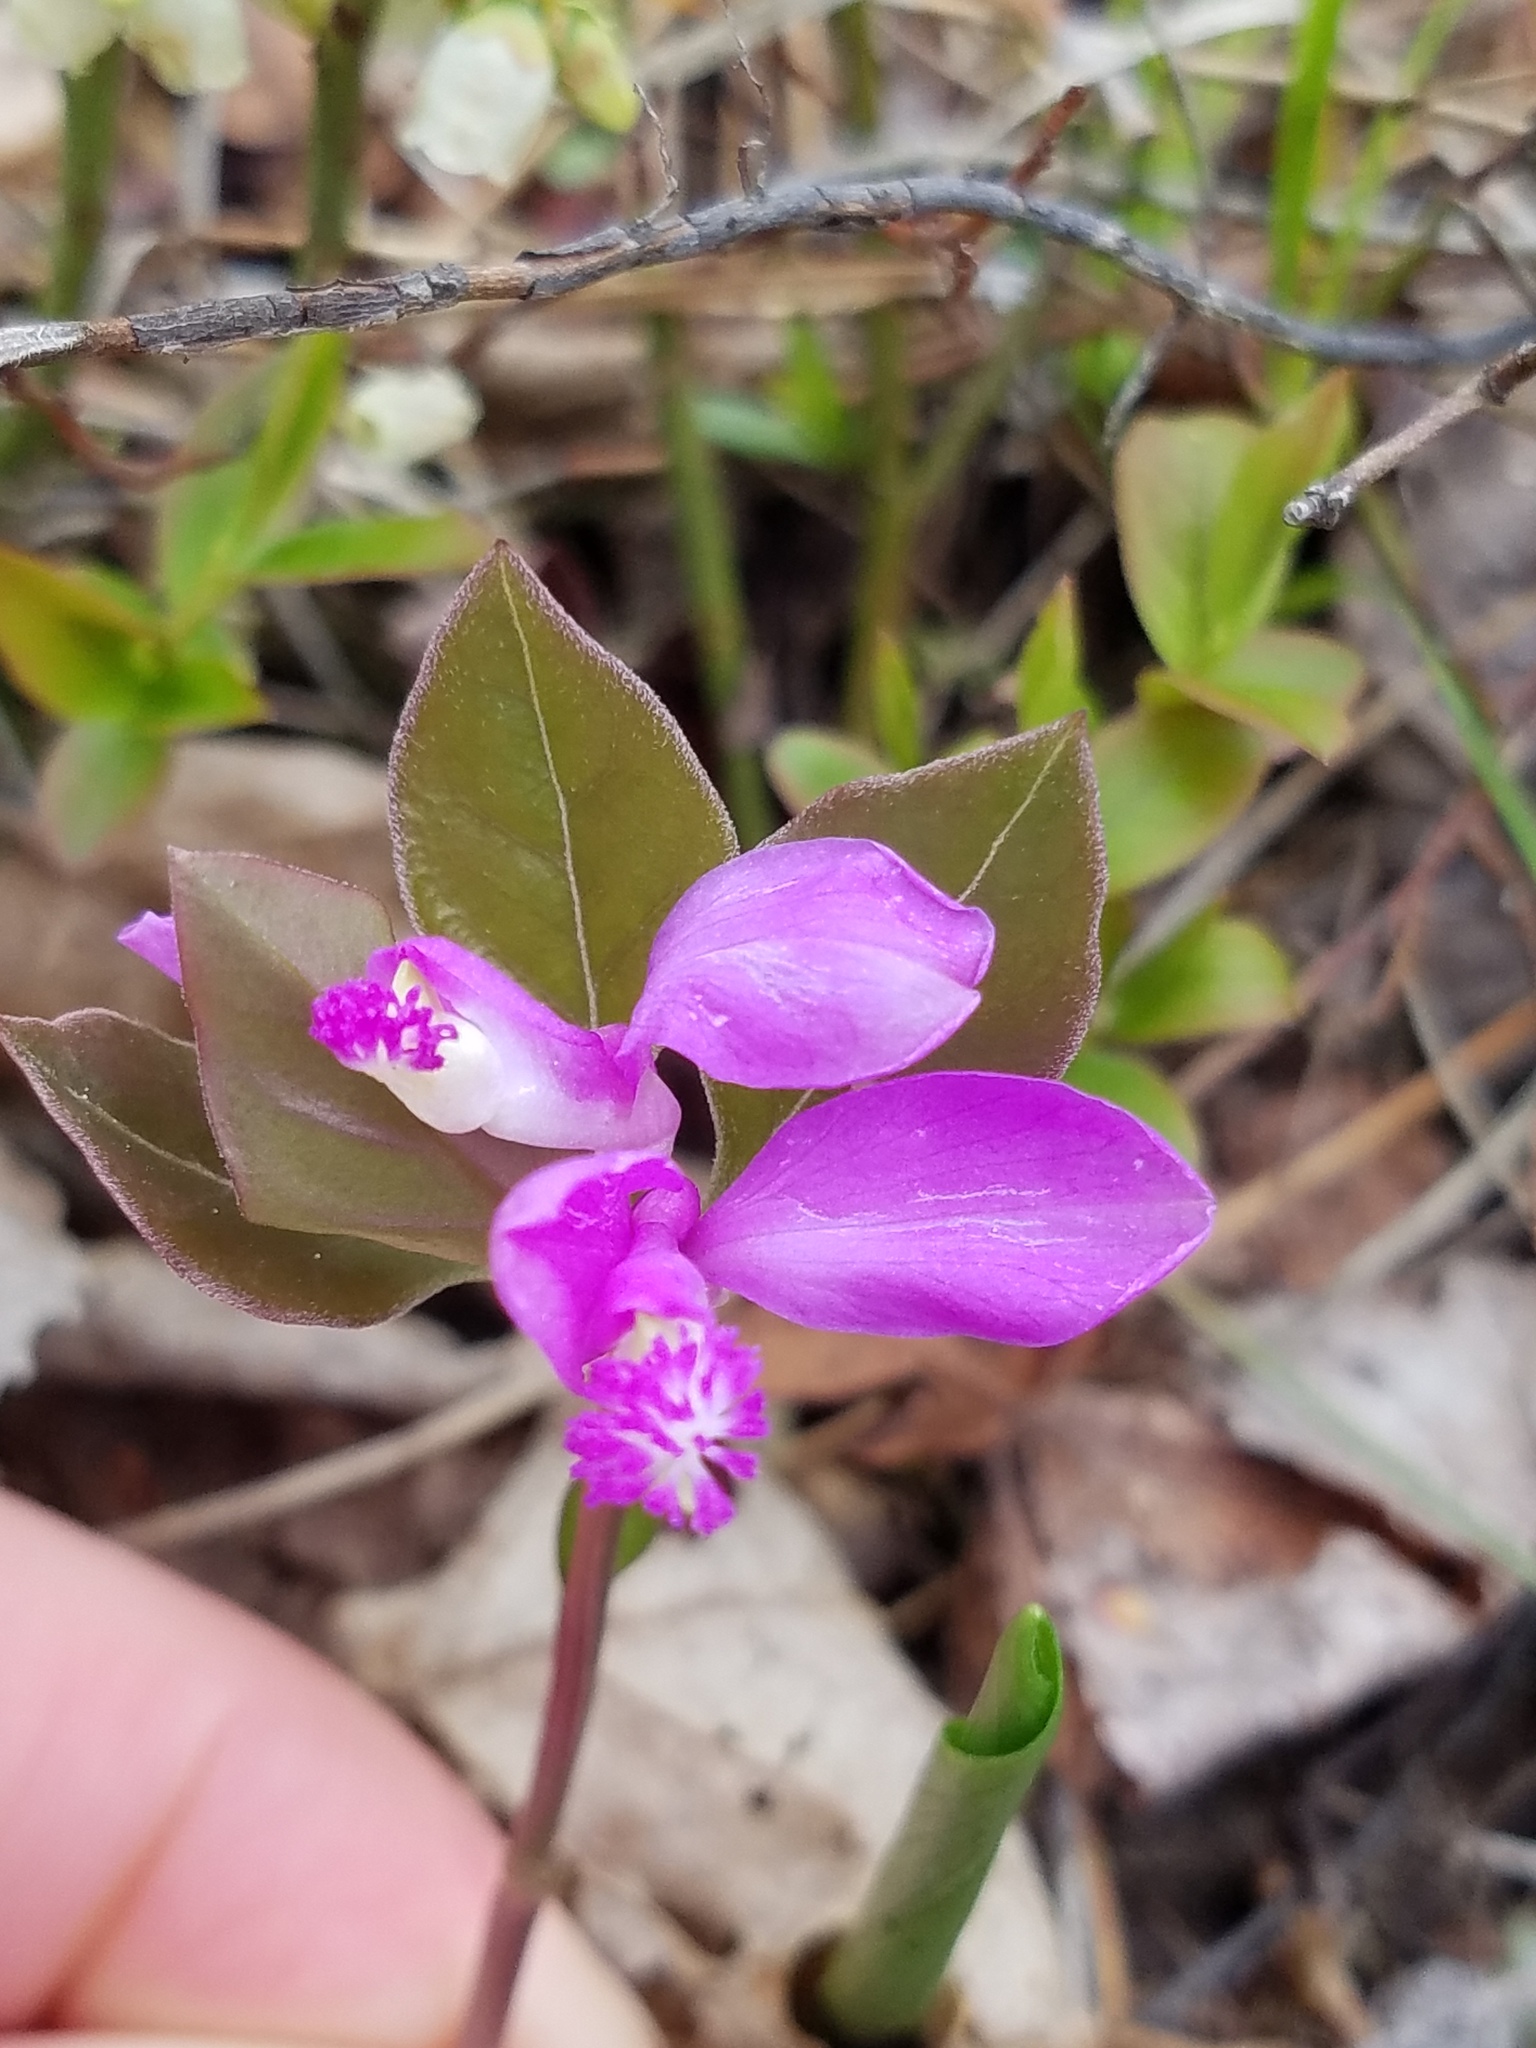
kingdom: Plantae
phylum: Tracheophyta
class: Magnoliopsida
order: Fabales
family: Polygalaceae
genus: Polygaloides
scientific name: Polygaloides paucifolia
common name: Bird-on-the-wing
